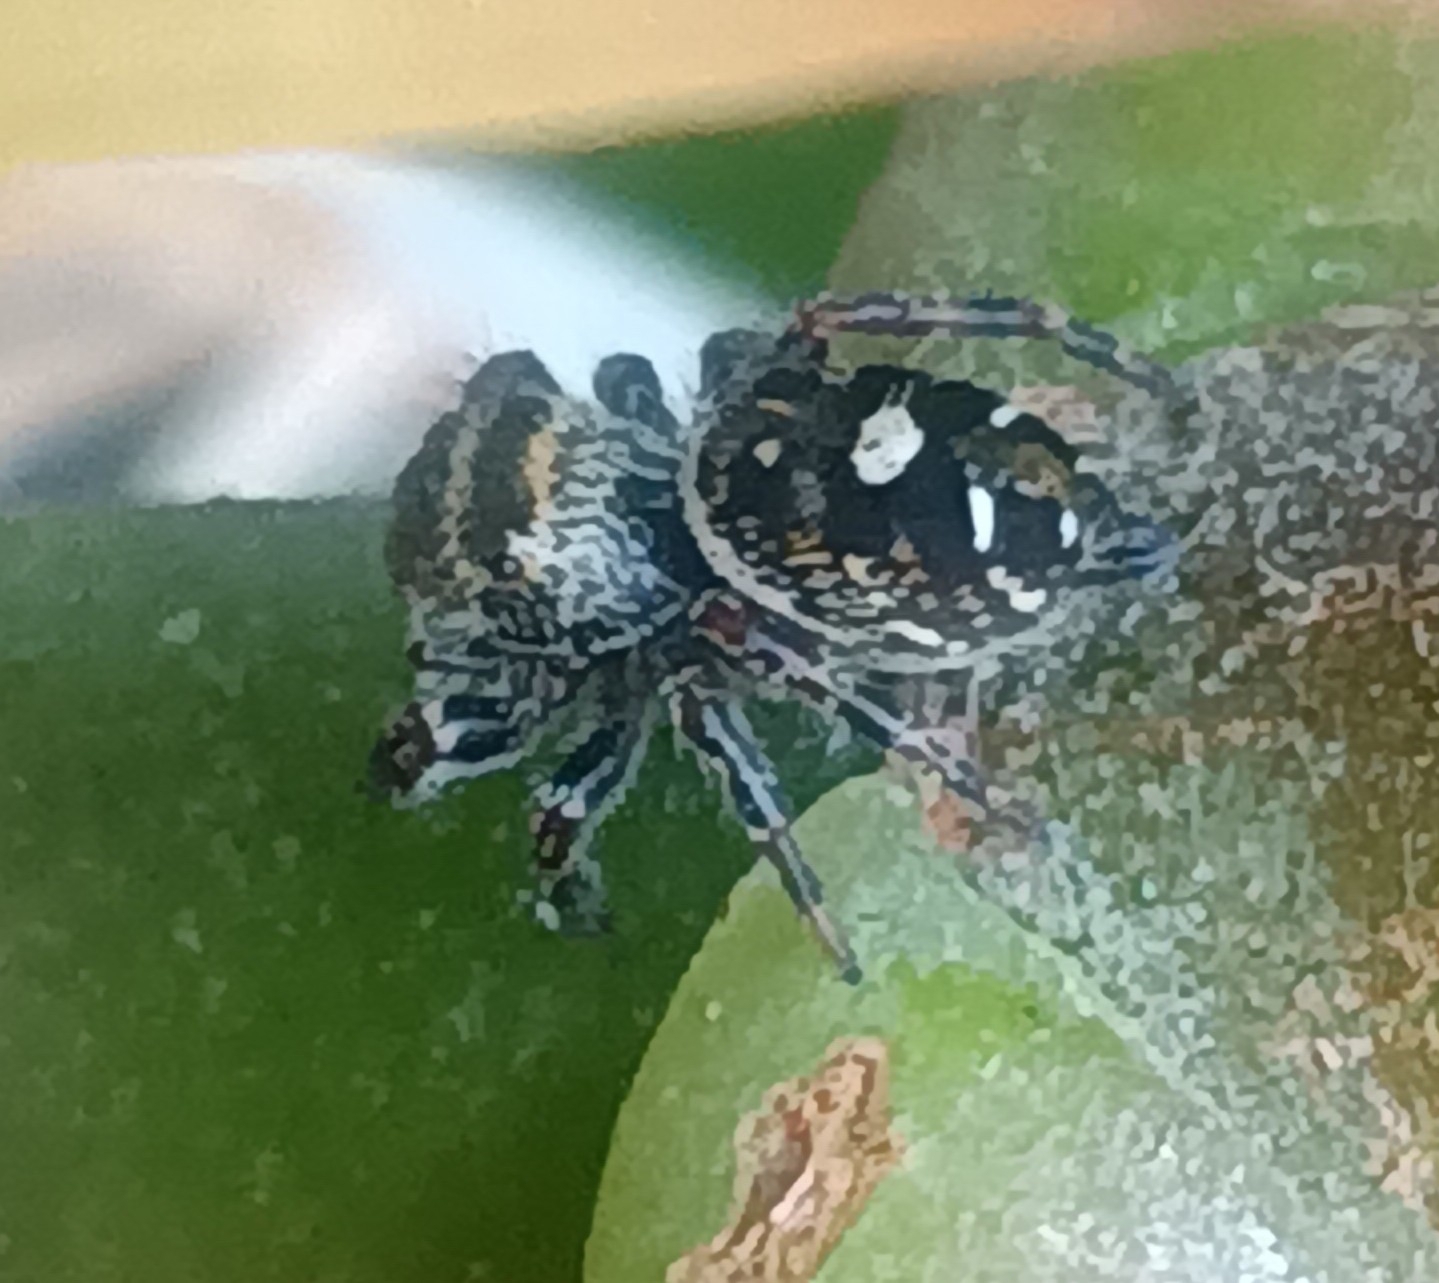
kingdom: Animalia
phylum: Arthropoda
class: Arachnida
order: Araneae
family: Salticidae
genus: Phidippus
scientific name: Phidippus audax
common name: Bold jumper
